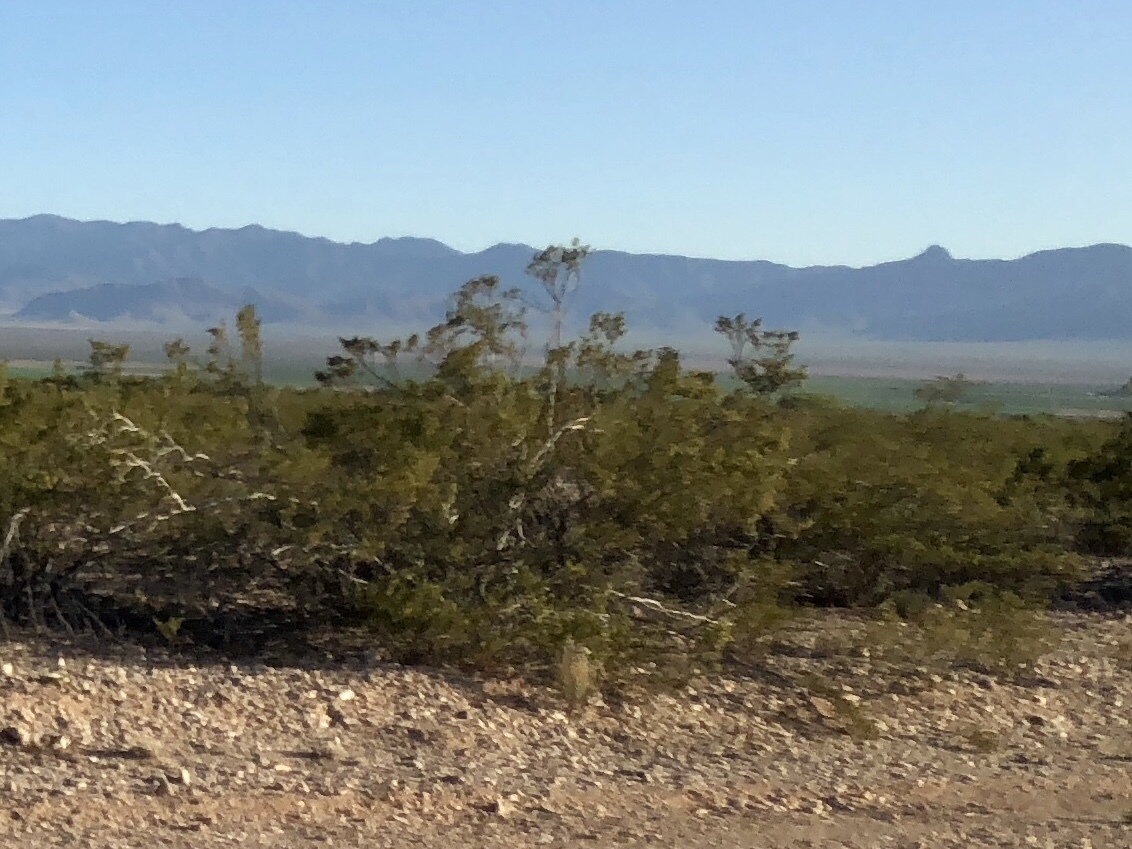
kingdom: Plantae
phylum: Tracheophyta
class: Magnoliopsida
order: Zygophyllales
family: Zygophyllaceae
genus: Larrea
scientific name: Larrea tridentata
